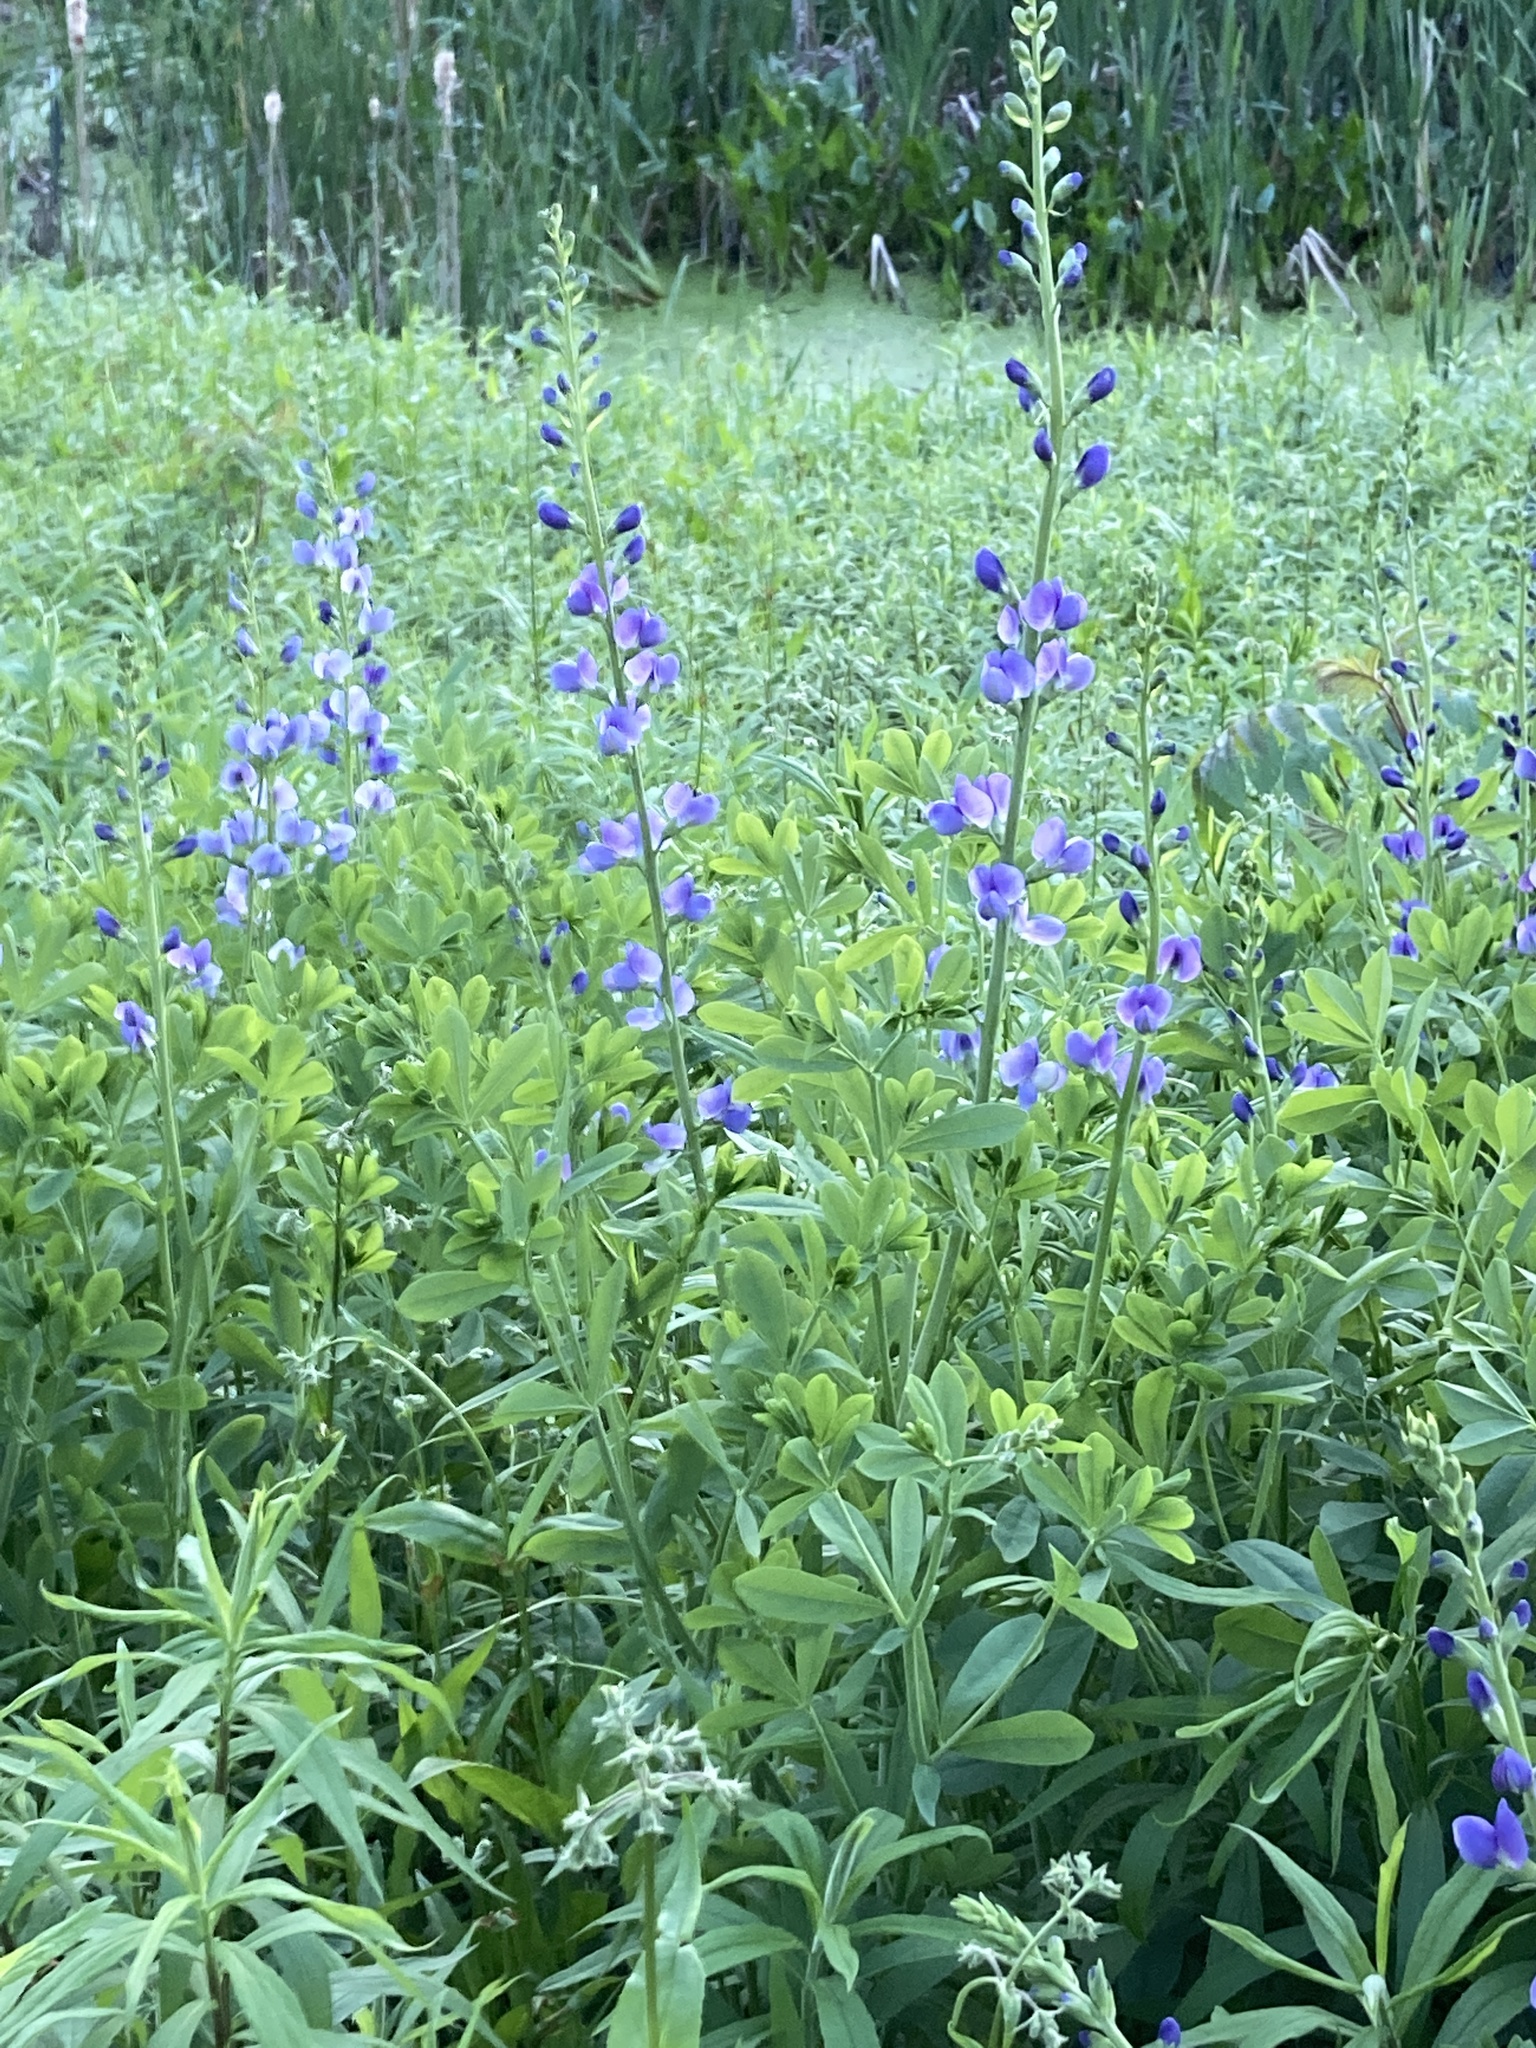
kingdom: Plantae
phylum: Tracheophyta
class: Magnoliopsida
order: Fabales
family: Fabaceae
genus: Baptisia
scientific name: Baptisia australis
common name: Blue false indigo
